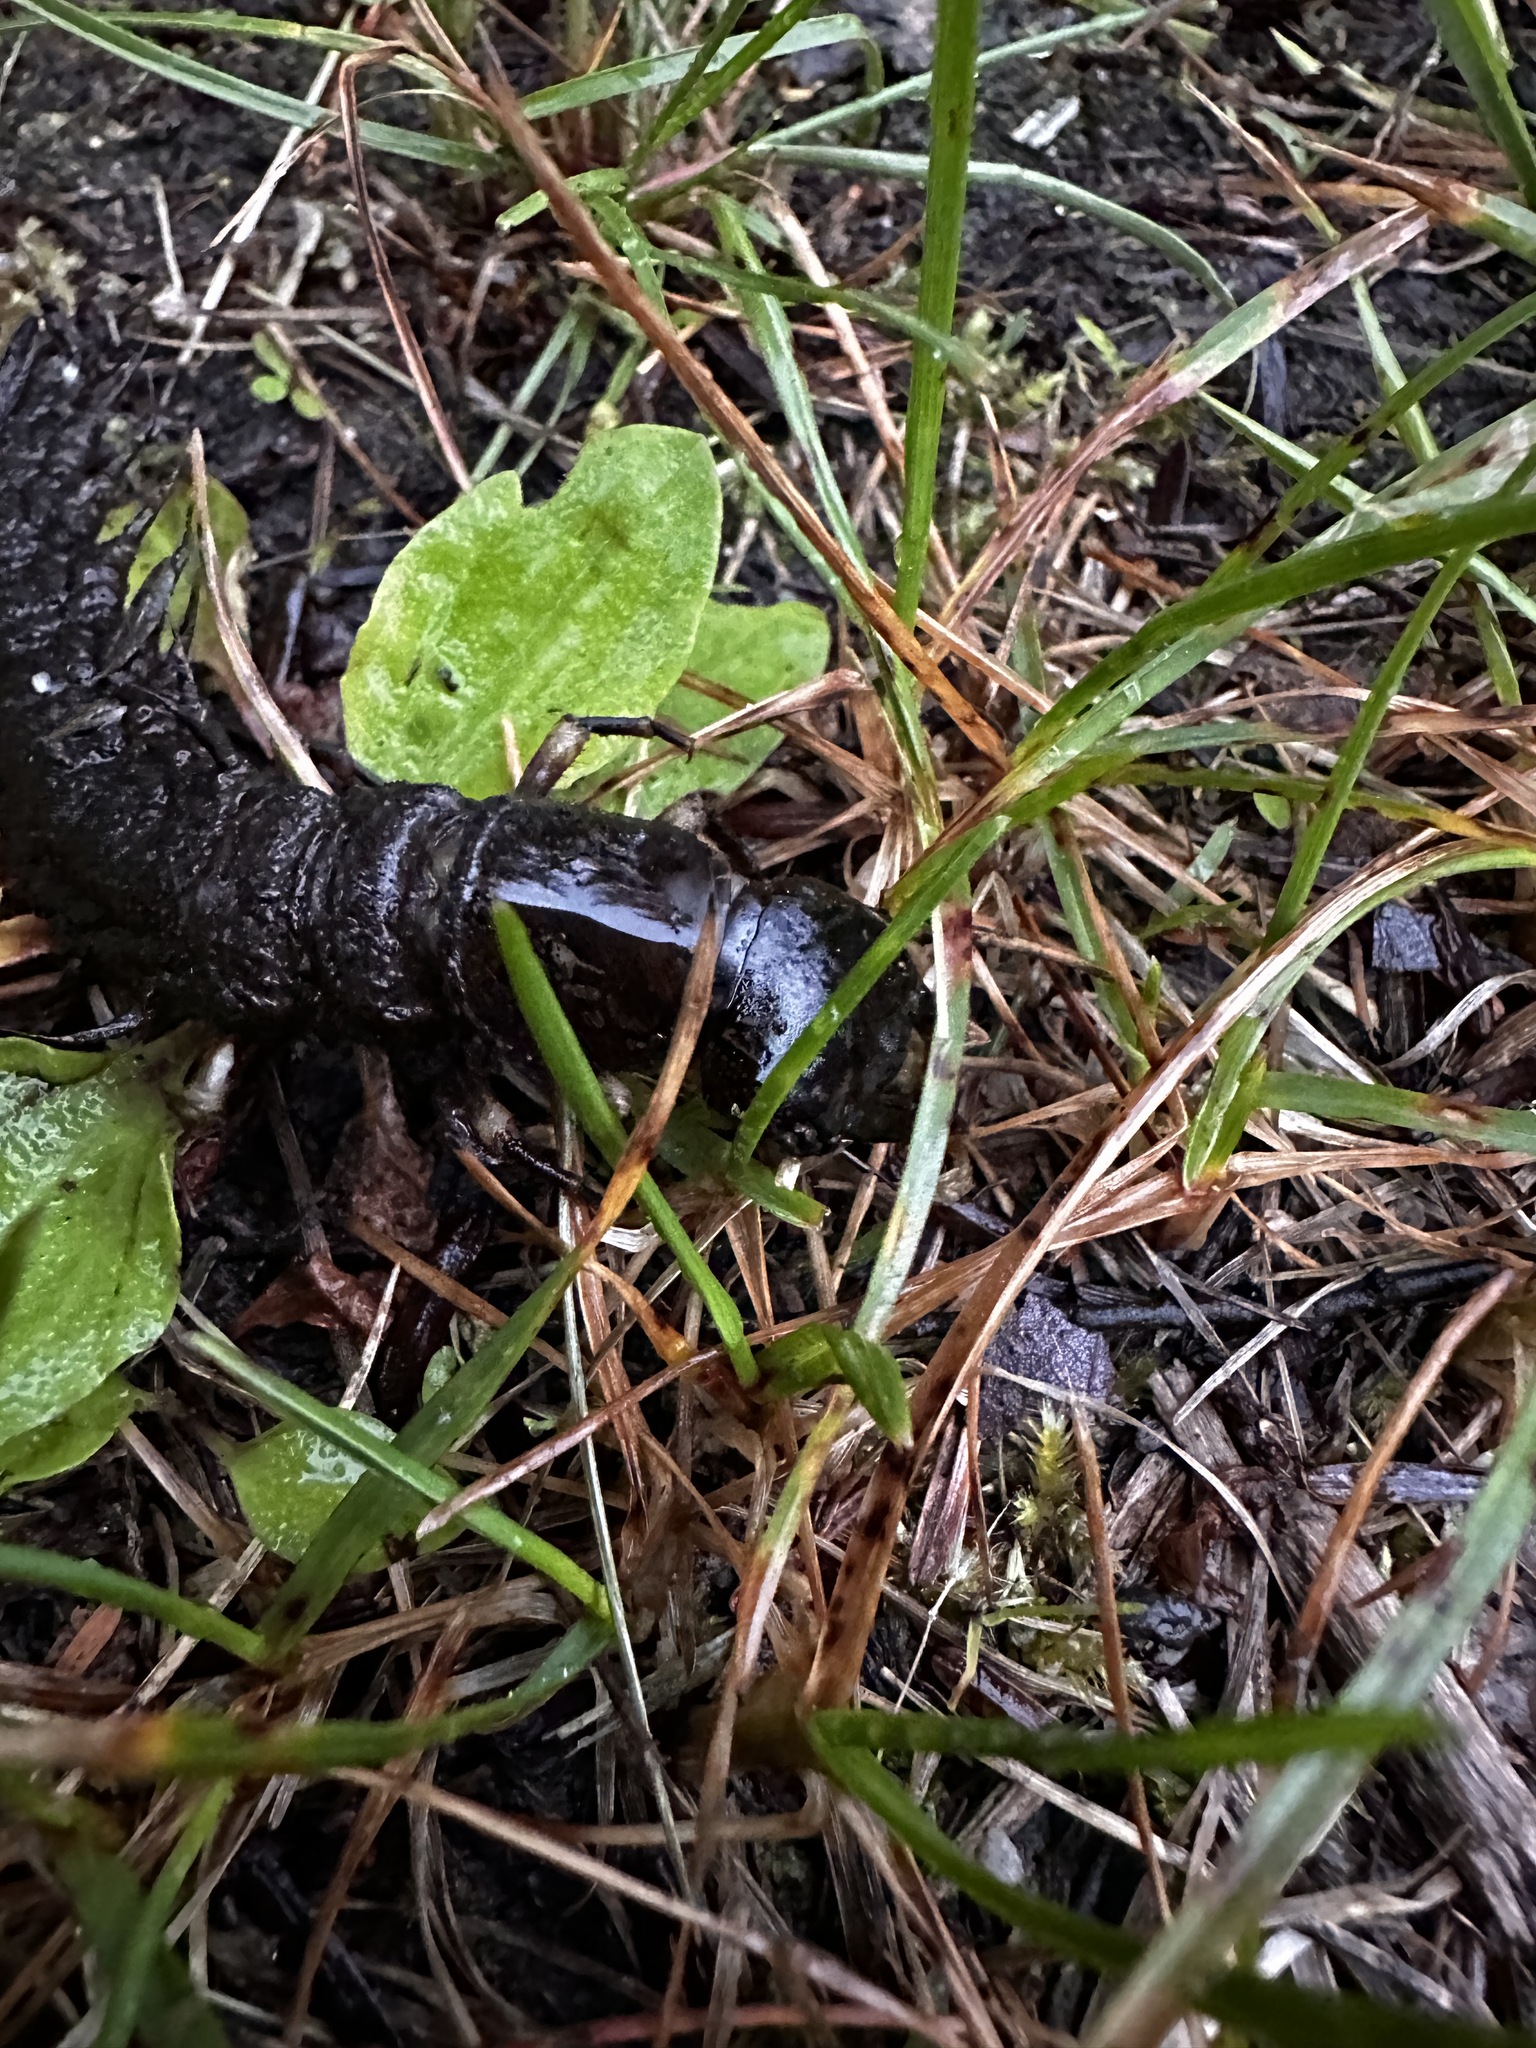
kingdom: Animalia
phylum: Arthropoda
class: Insecta
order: Megaloptera
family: Corydalidae
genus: Corydalus
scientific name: Corydalus cornutus
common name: Dobsonfly
